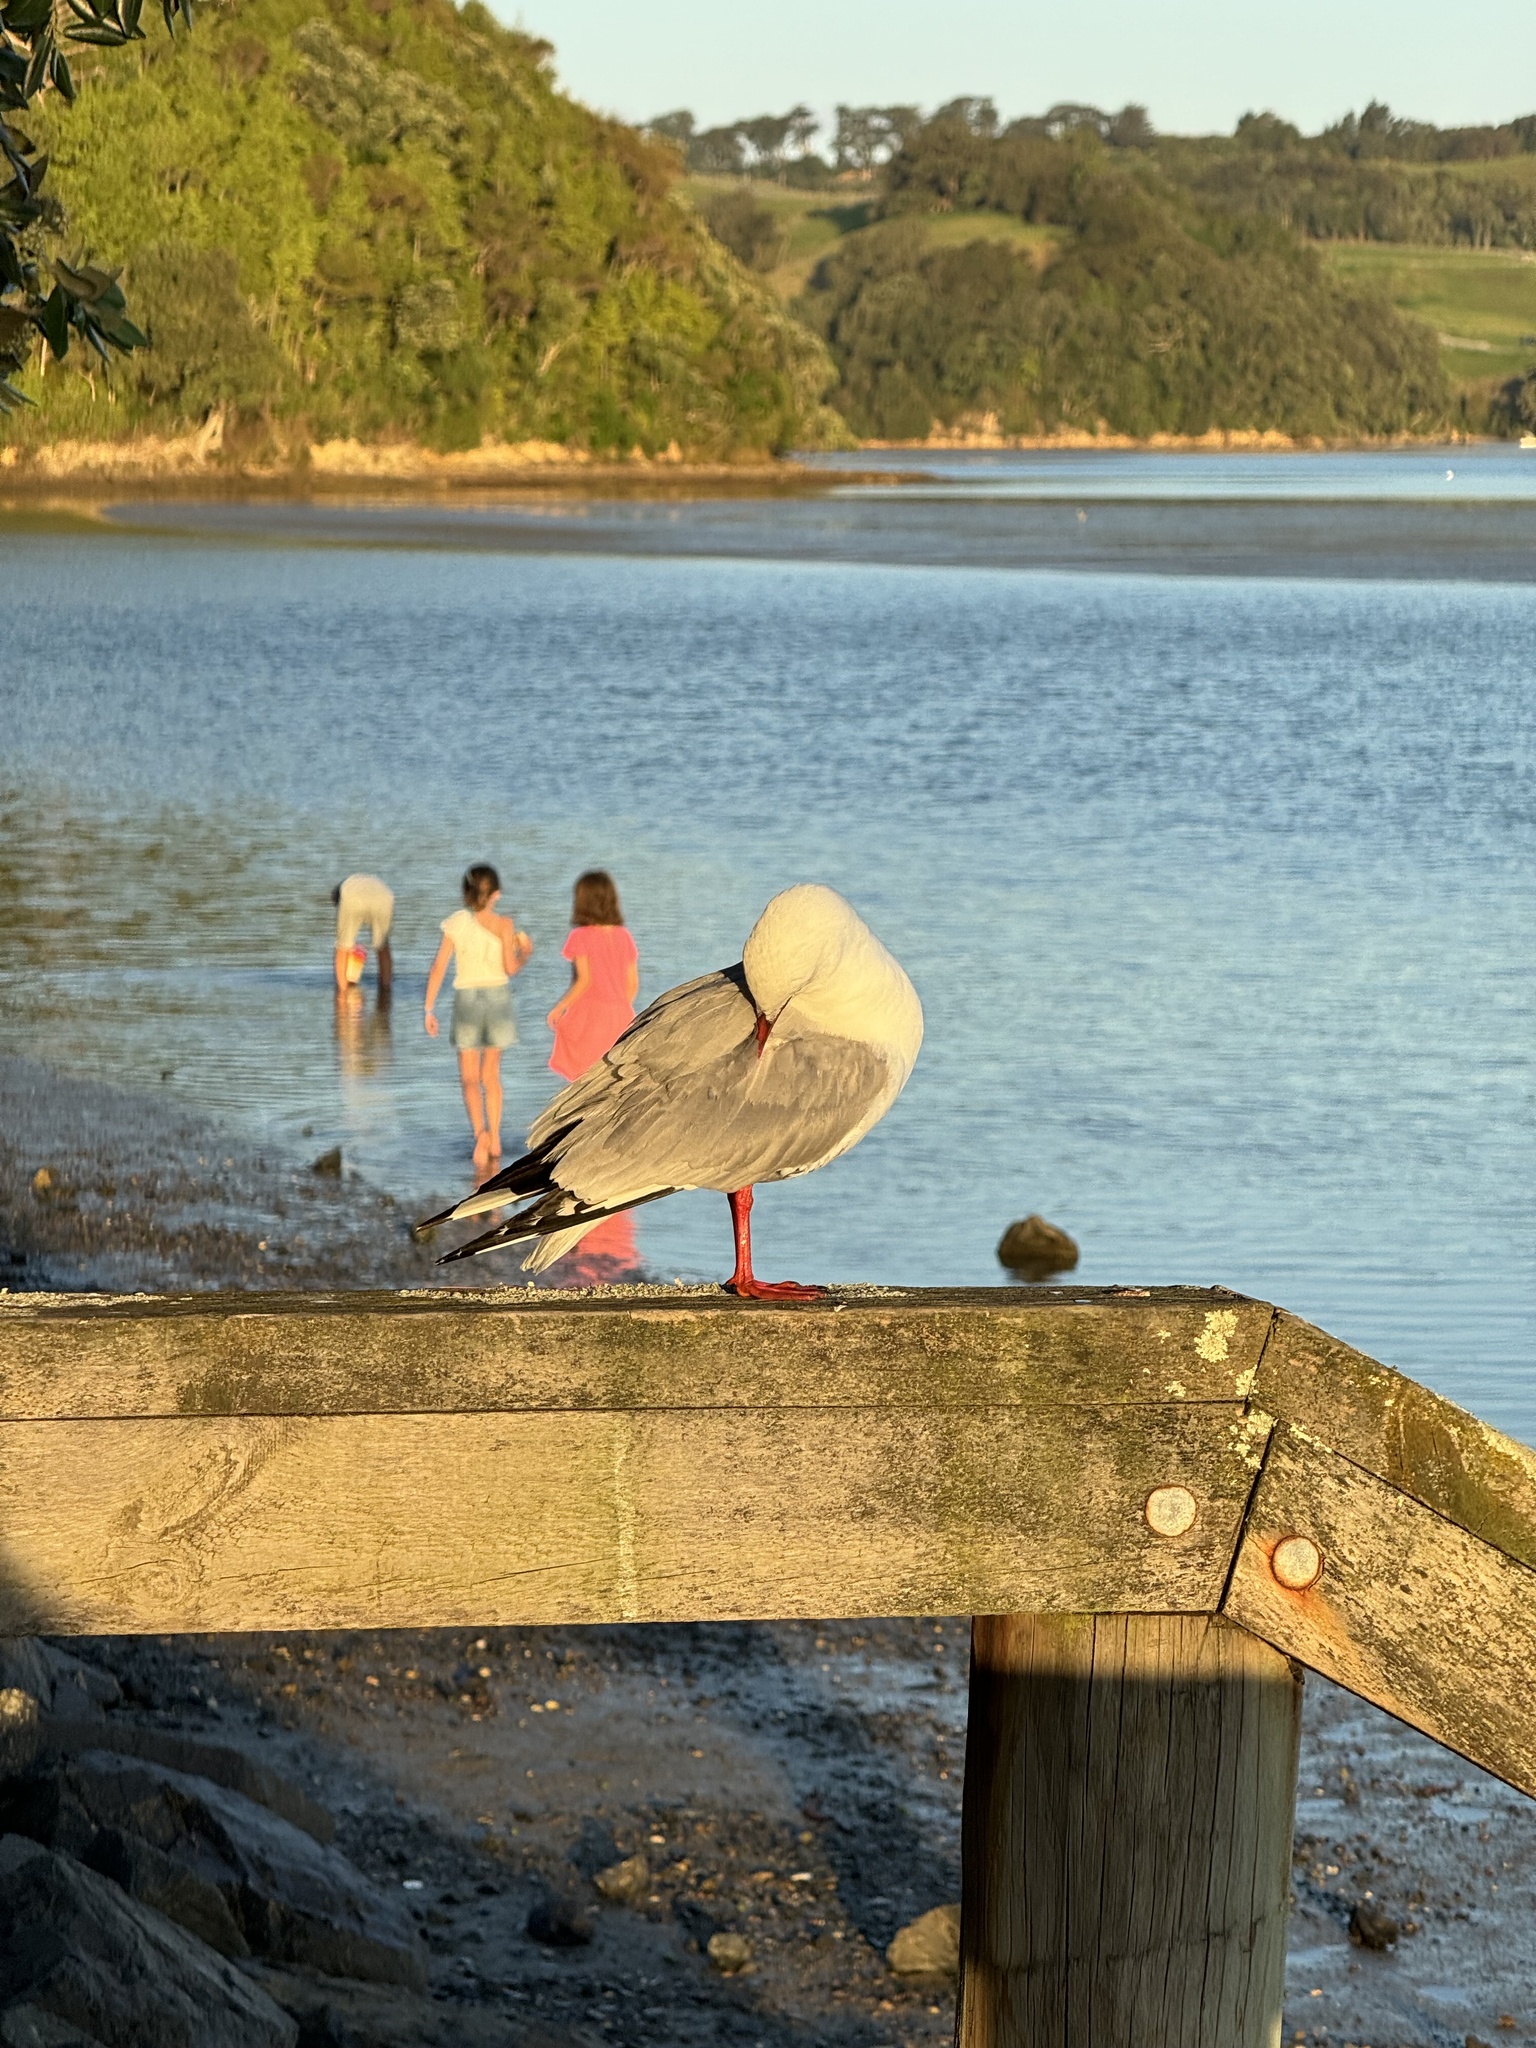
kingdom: Animalia
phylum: Chordata
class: Aves
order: Charadriiformes
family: Laridae
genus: Chroicocephalus
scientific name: Chroicocephalus novaehollandiae
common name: Silver gull
